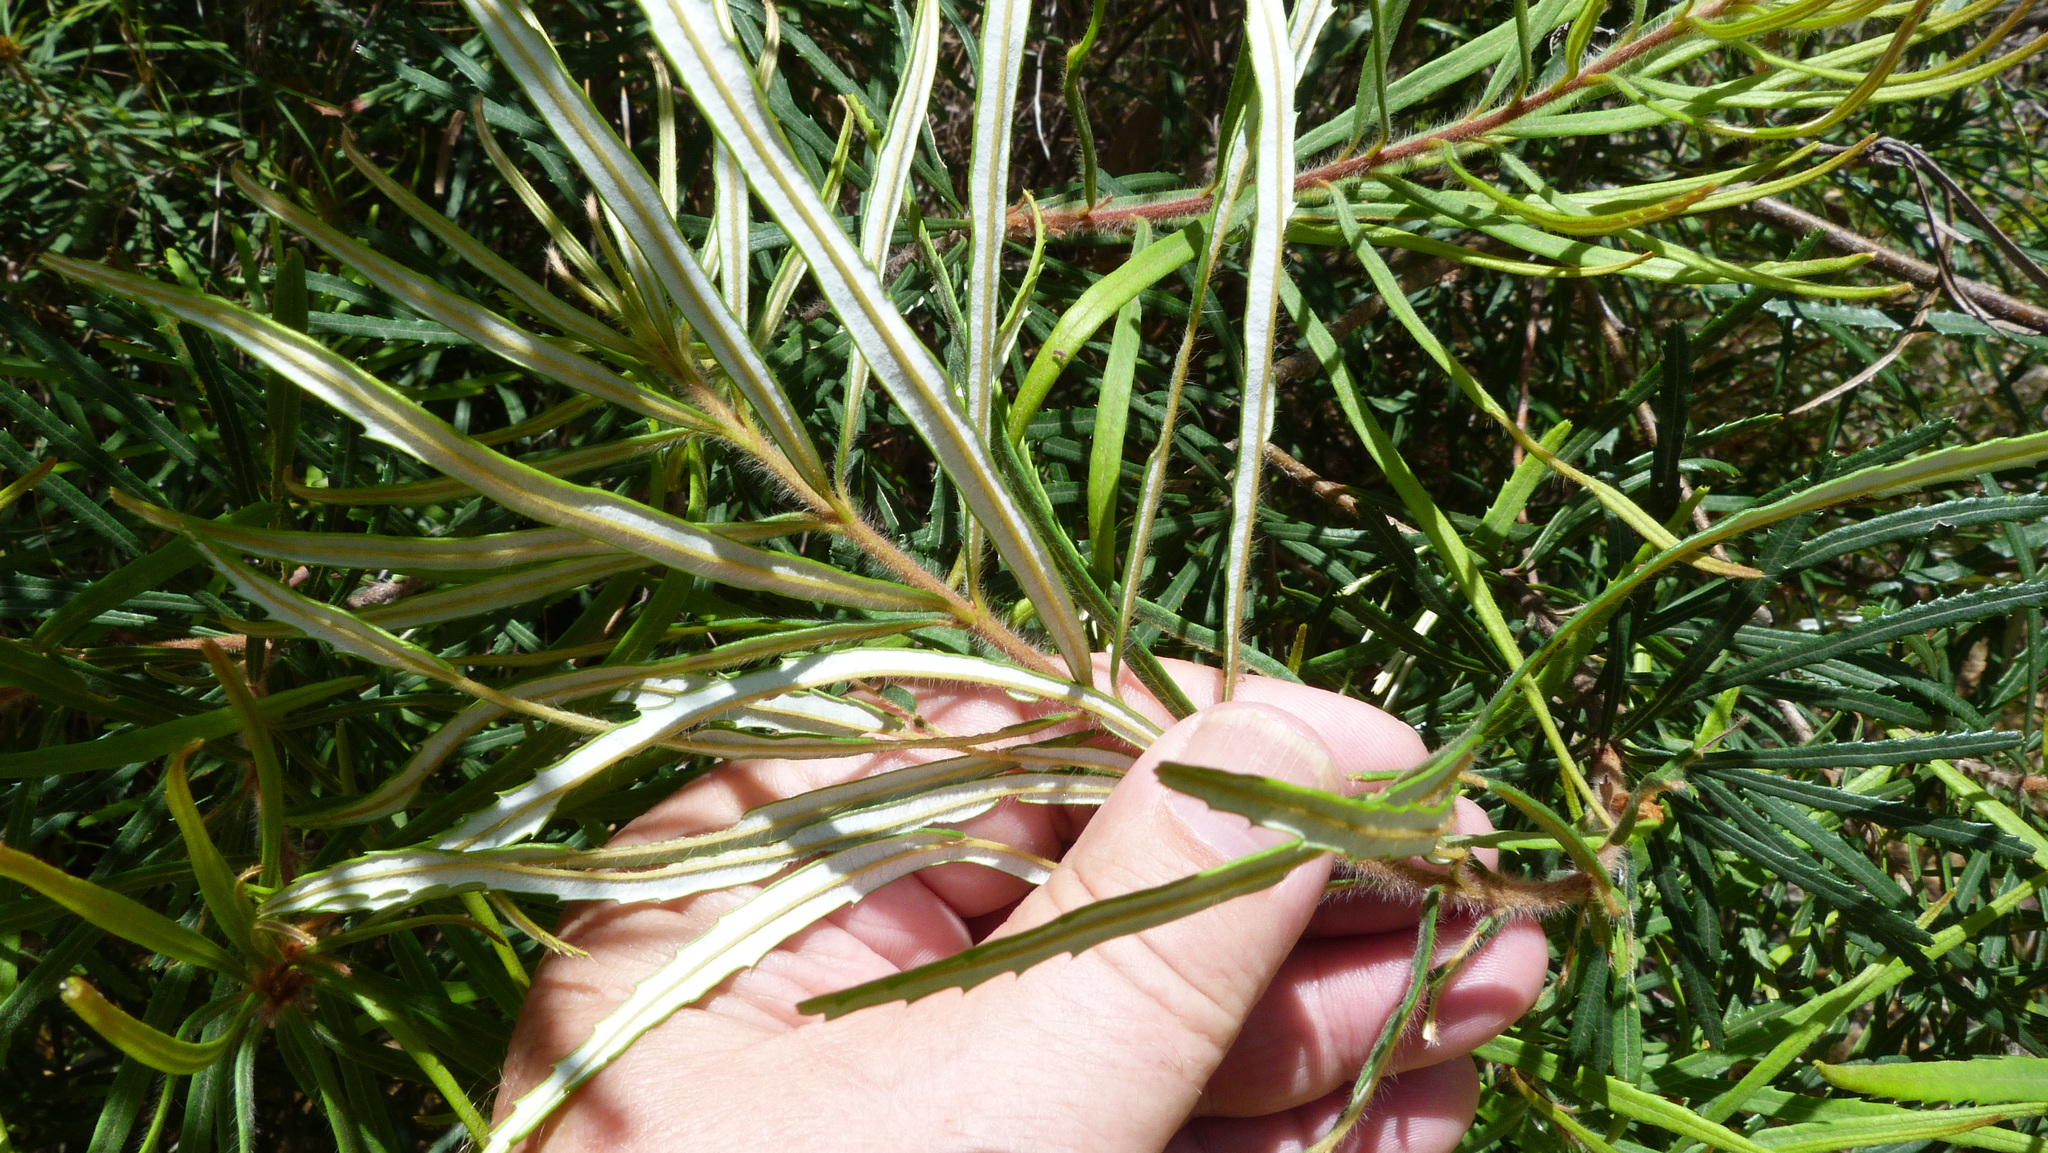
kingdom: Plantae
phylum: Tracheophyta
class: Magnoliopsida
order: Proteales
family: Proteaceae
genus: Banksia
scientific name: Banksia spinulosa
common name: Hairpin banksia
